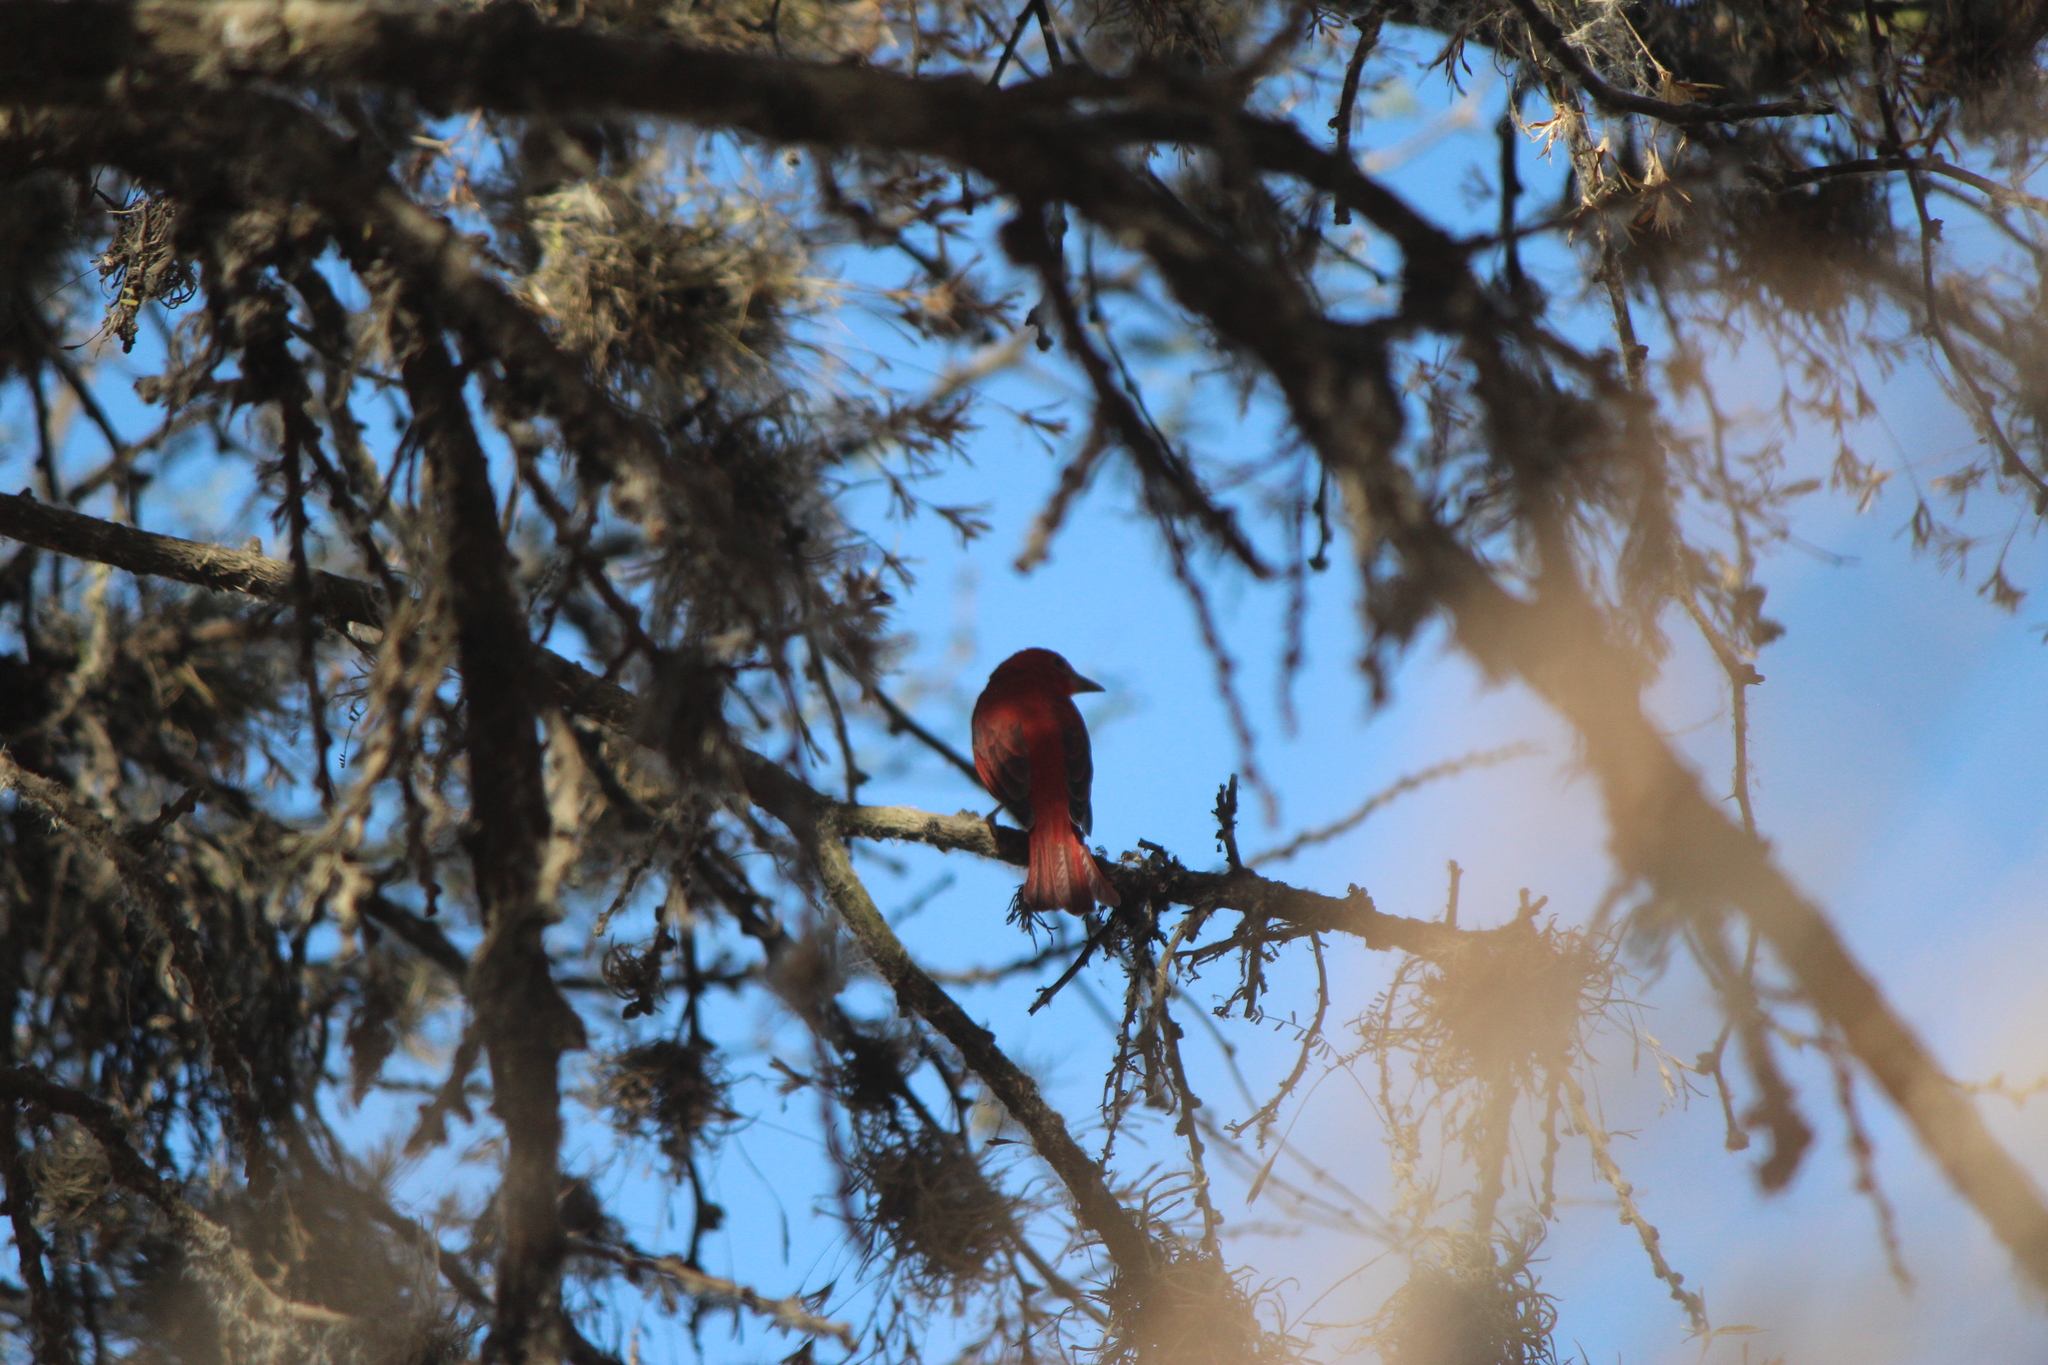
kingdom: Animalia
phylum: Chordata
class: Aves
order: Passeriformes
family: Cardinalidae
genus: Piranga
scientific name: Piranga rubra
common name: Summer tanager
